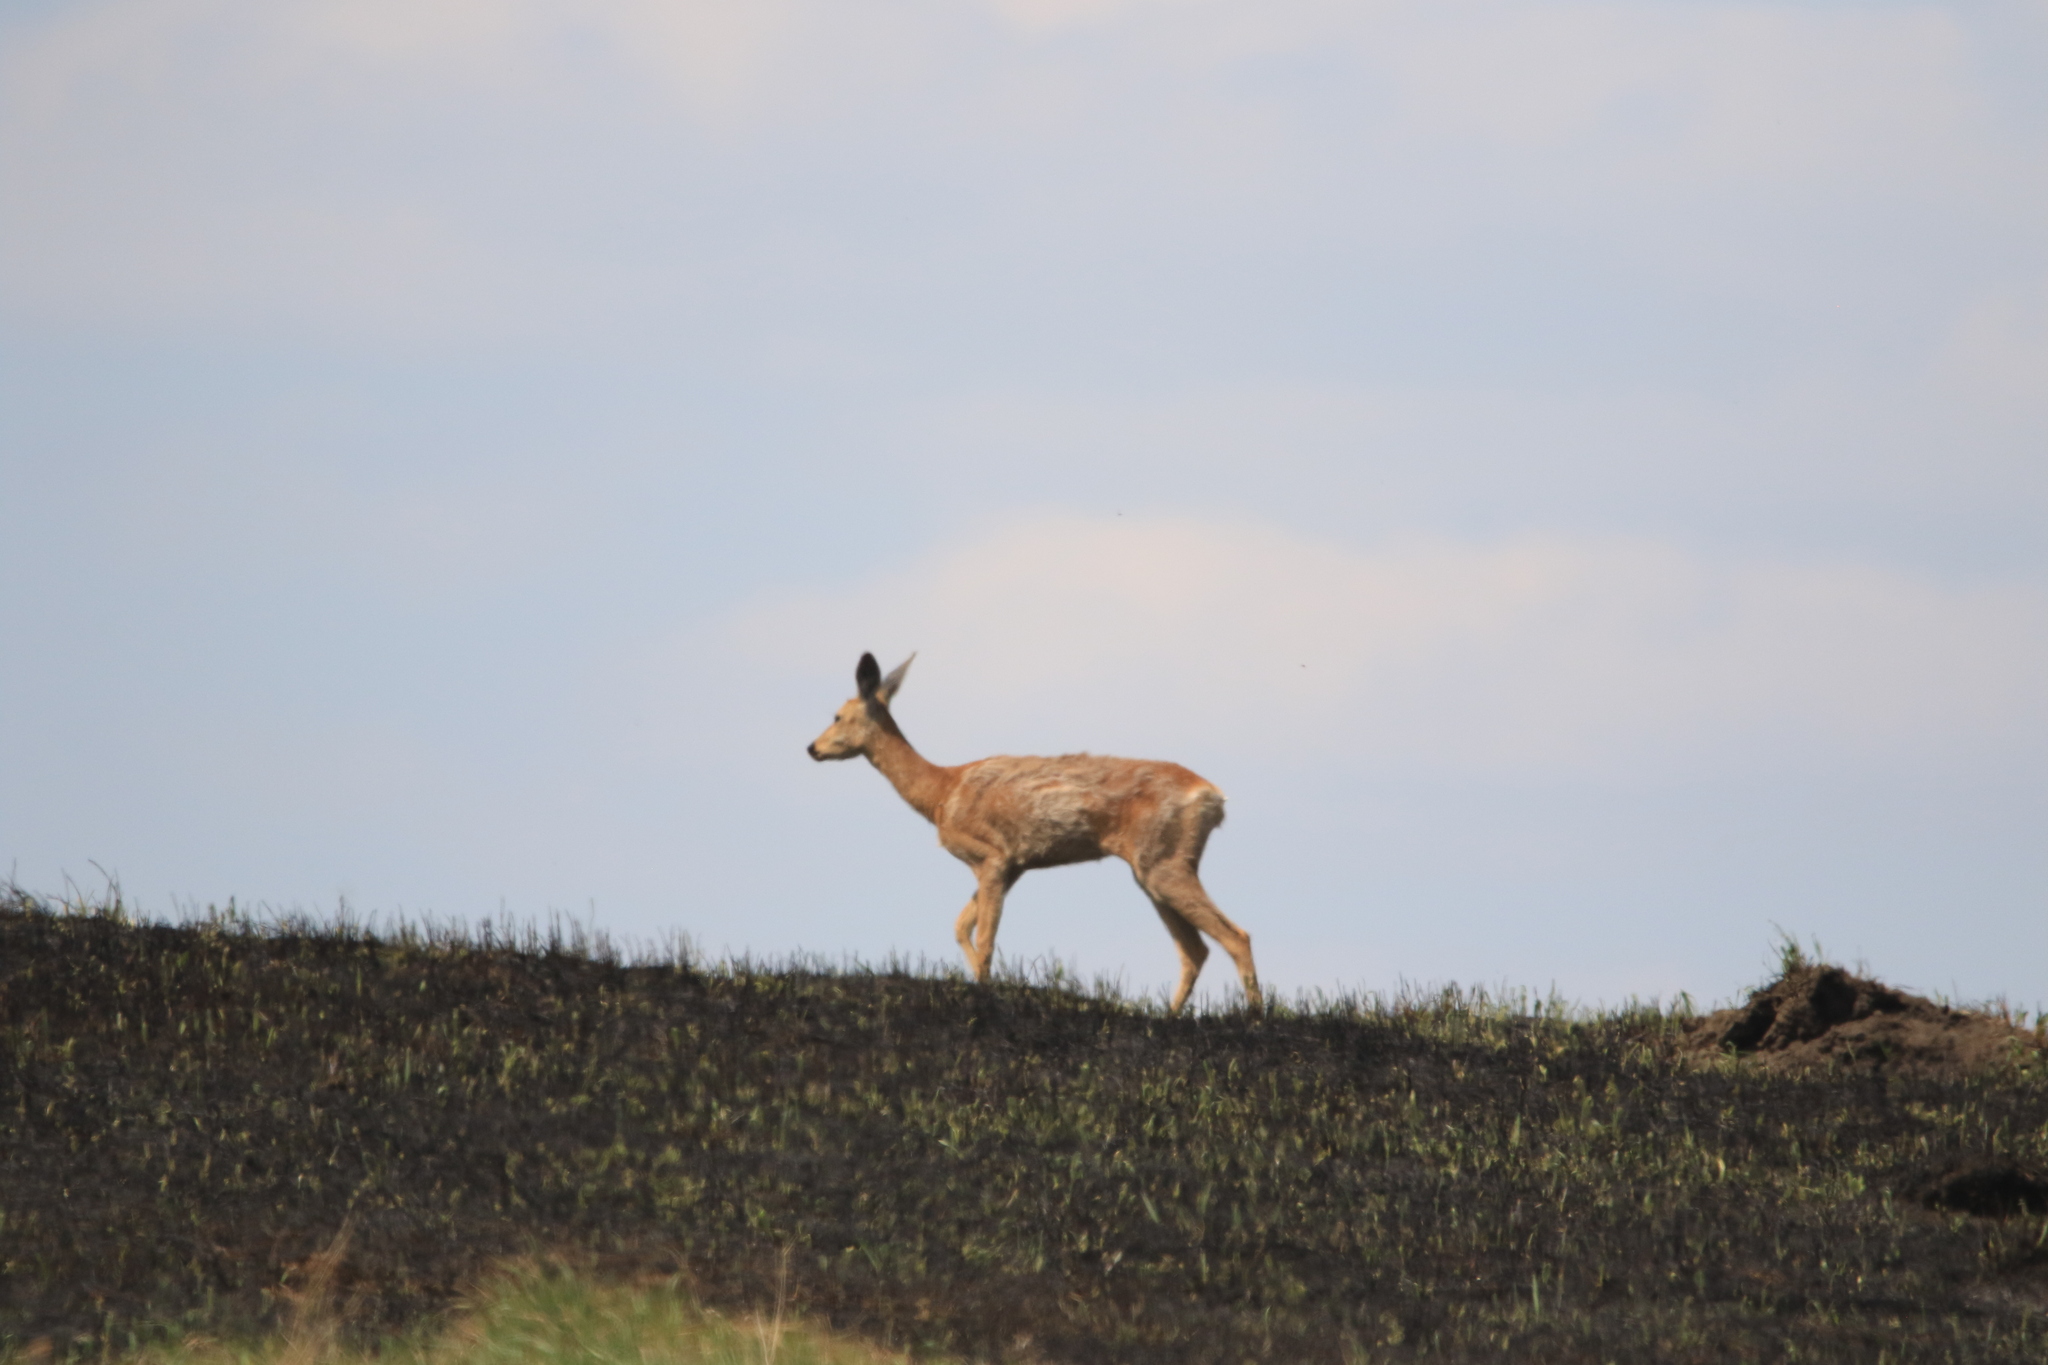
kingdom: Animalia
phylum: Chordata
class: Mammalia
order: Artiodactyla
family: Cervidae
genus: Capreolus
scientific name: Capreolus pygargus
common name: Siberian roe
